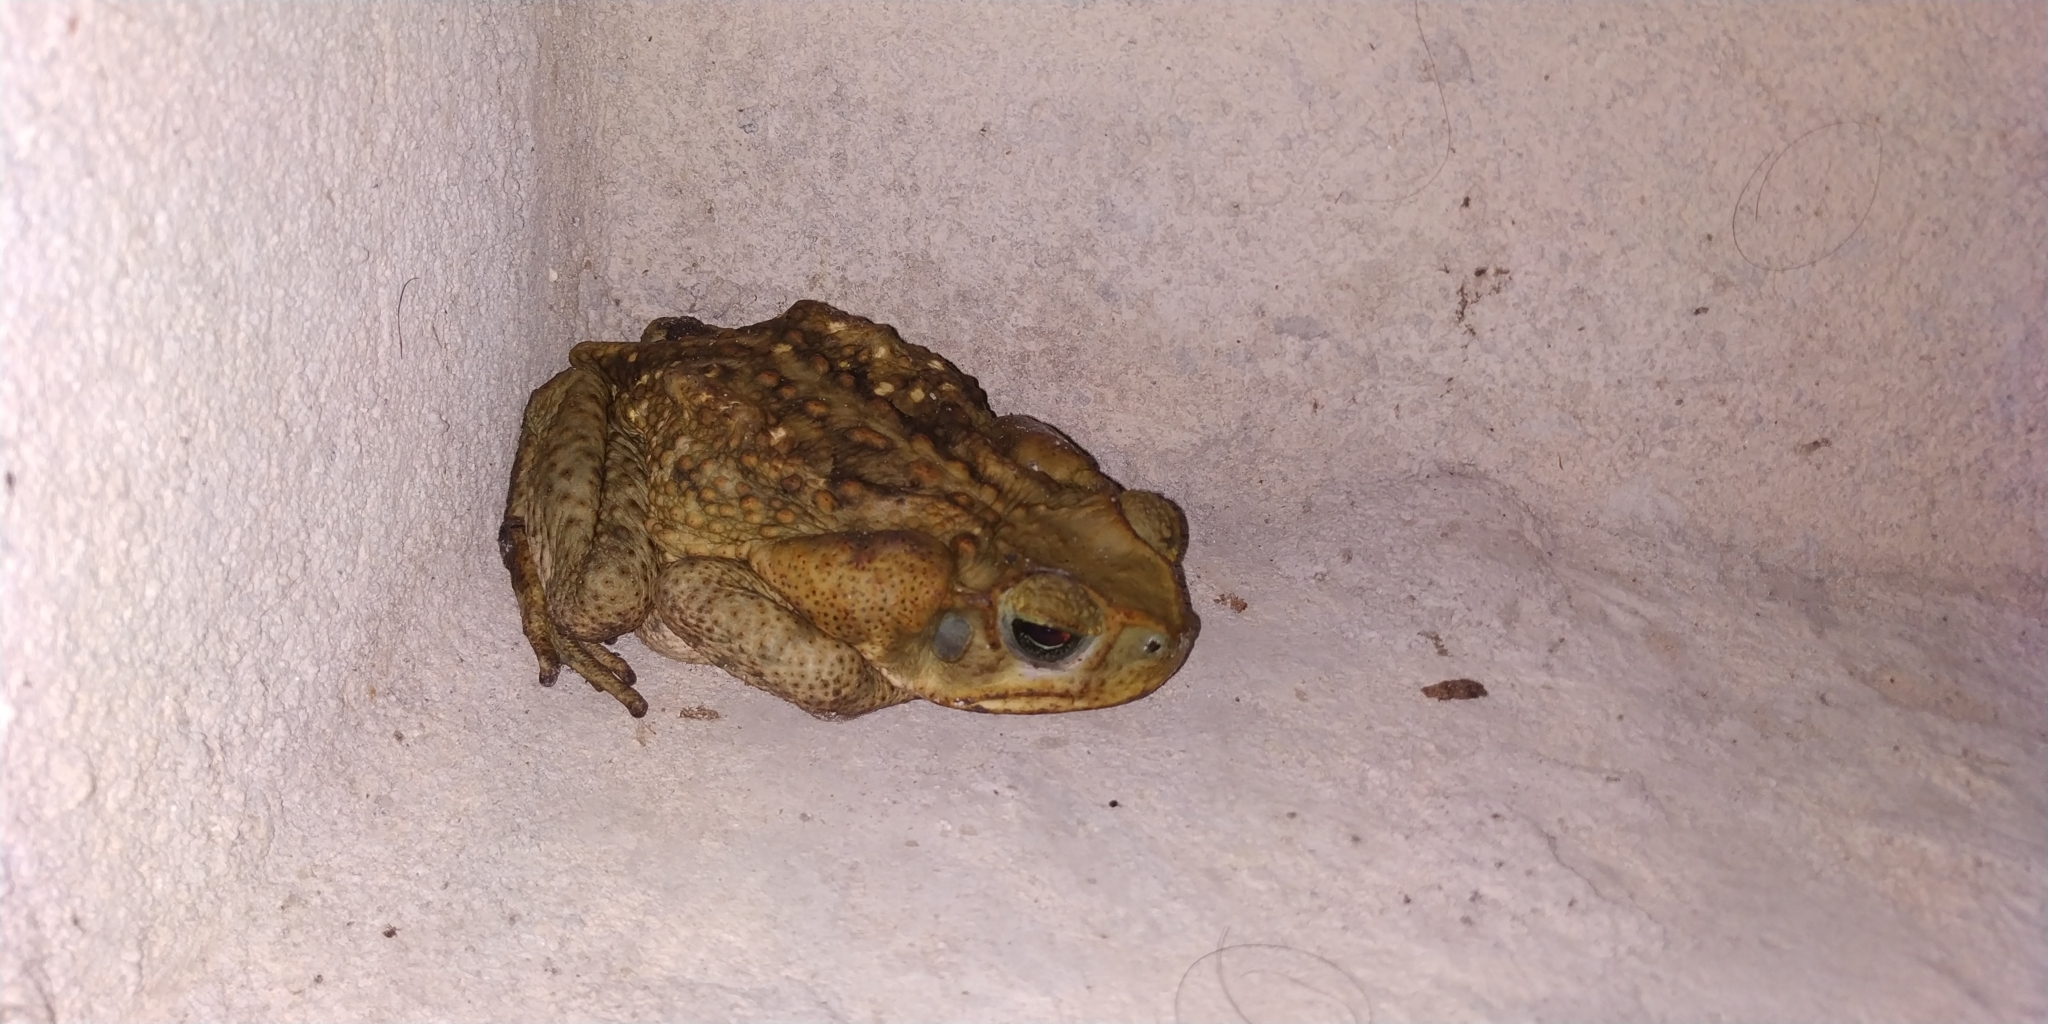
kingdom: Animalia
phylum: Chordata
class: Amphibia
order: Anura
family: Bufonidae
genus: Rhinella
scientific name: Rhinella horribilis
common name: Mesoamerican cane toad
